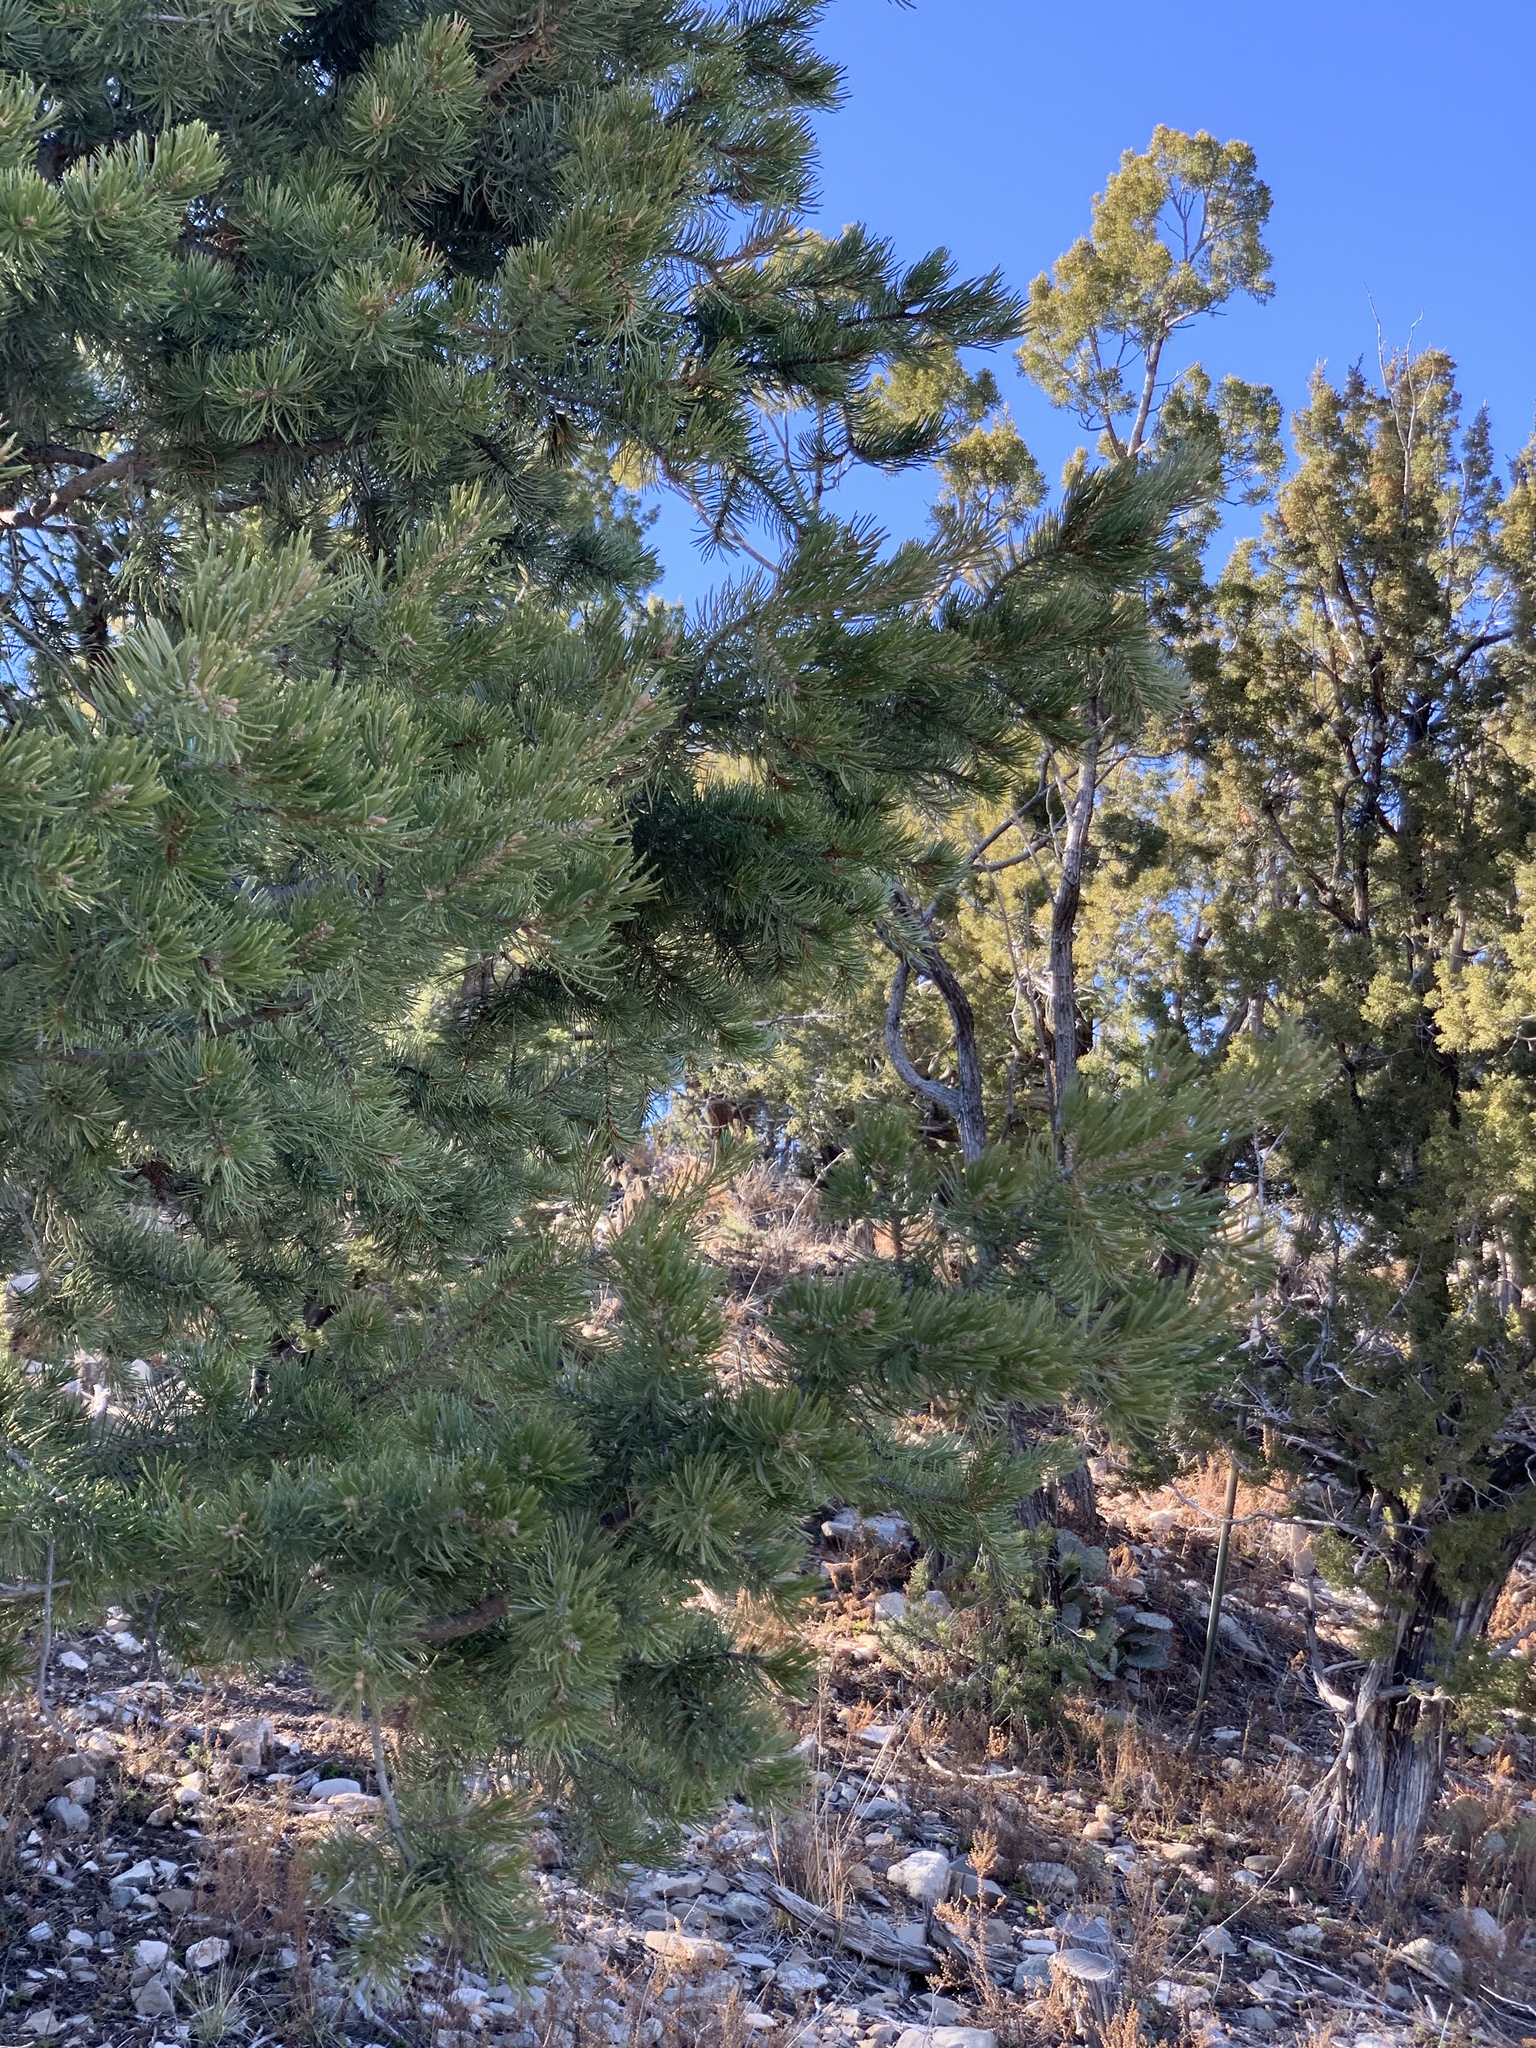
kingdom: Plantae
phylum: Tracheophyta
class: Pinopsida
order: Pinales
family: Pinaceae
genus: Pinus
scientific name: Pinus edulis
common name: Colorado pinyon
